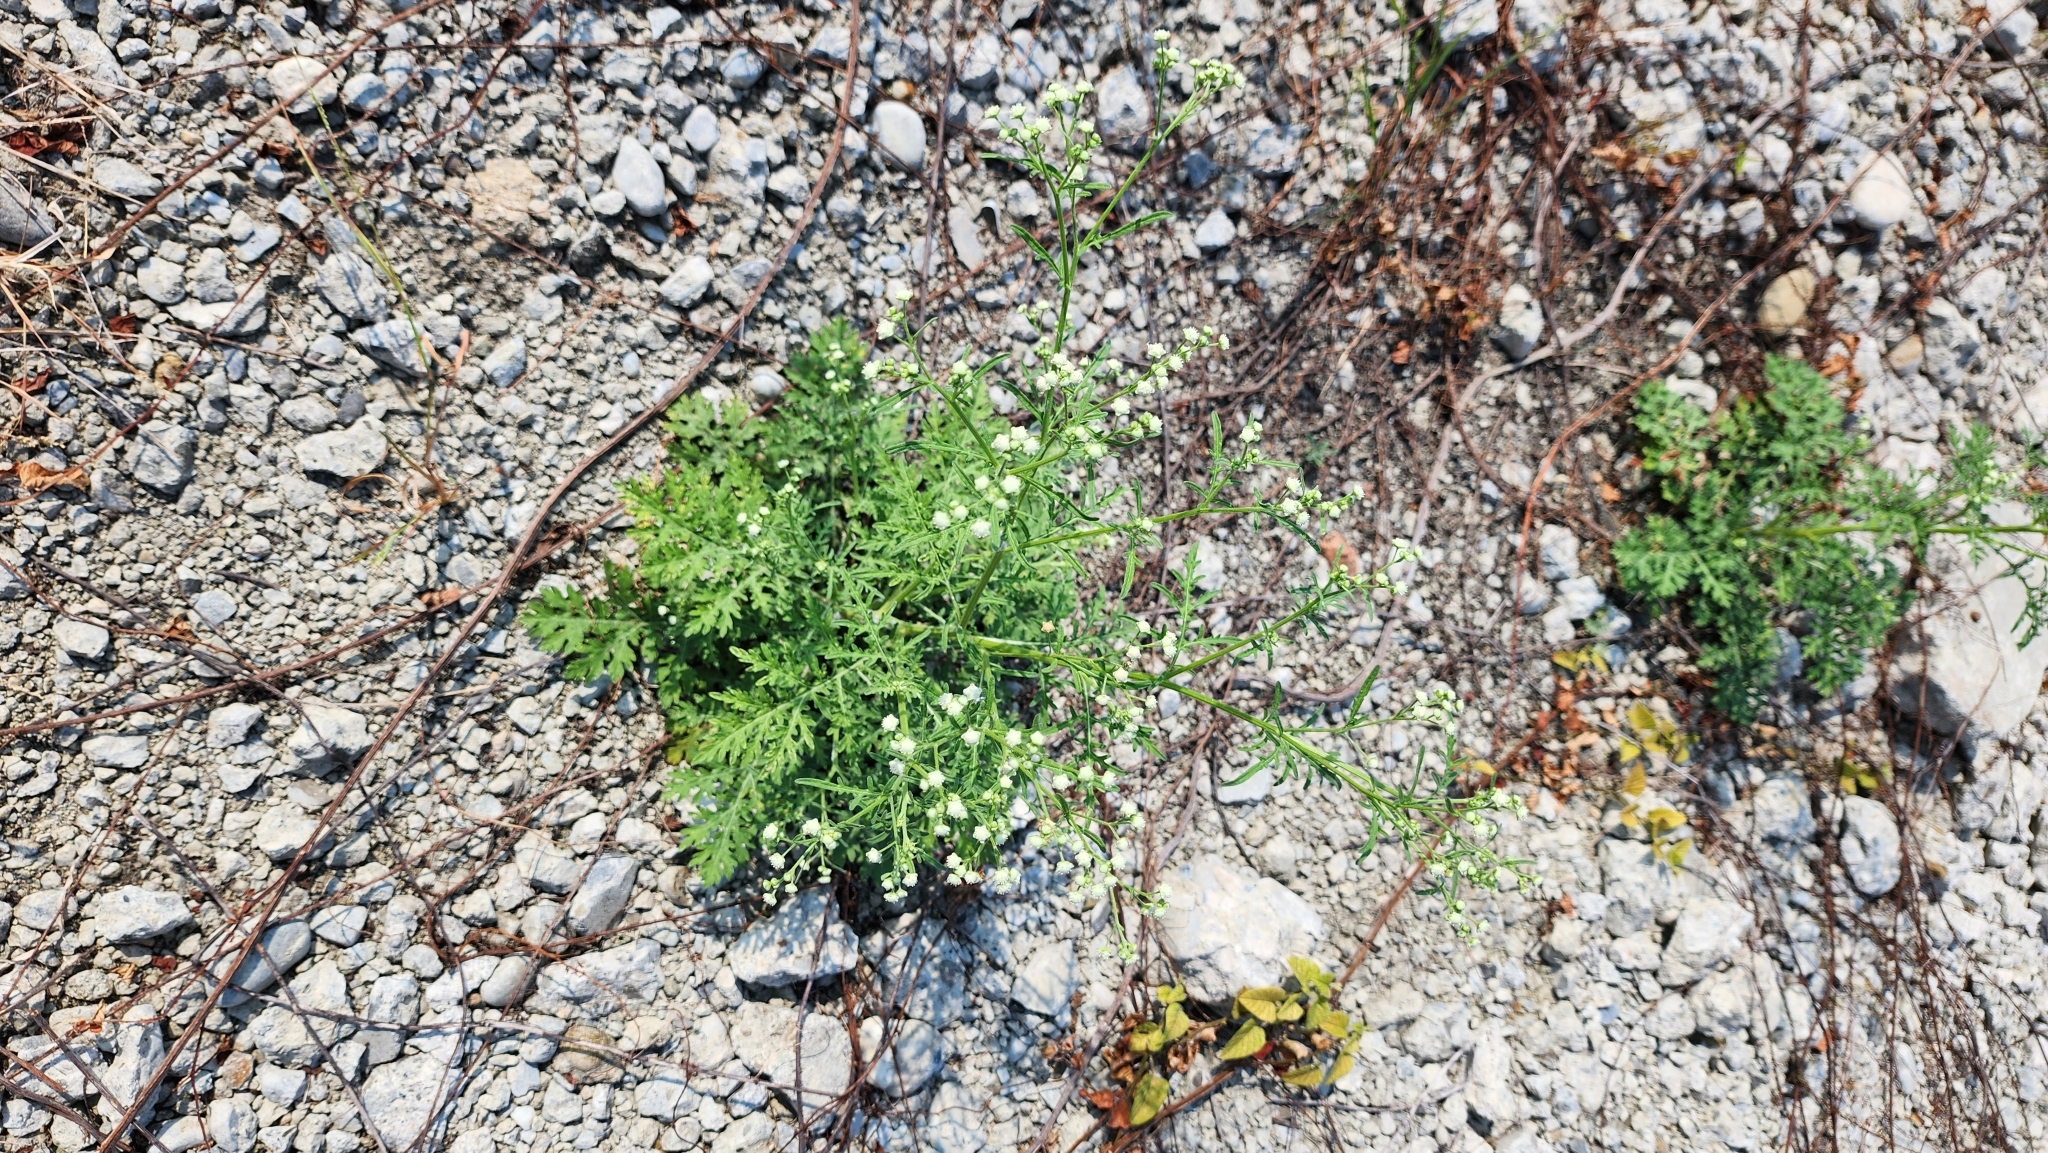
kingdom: Plantae
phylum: Tracheophyta
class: Magnoliopsida
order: Asterales
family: Asteraceae
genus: Parthenium
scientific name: Parthenium hysterophorus
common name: Santa maria feverfew
